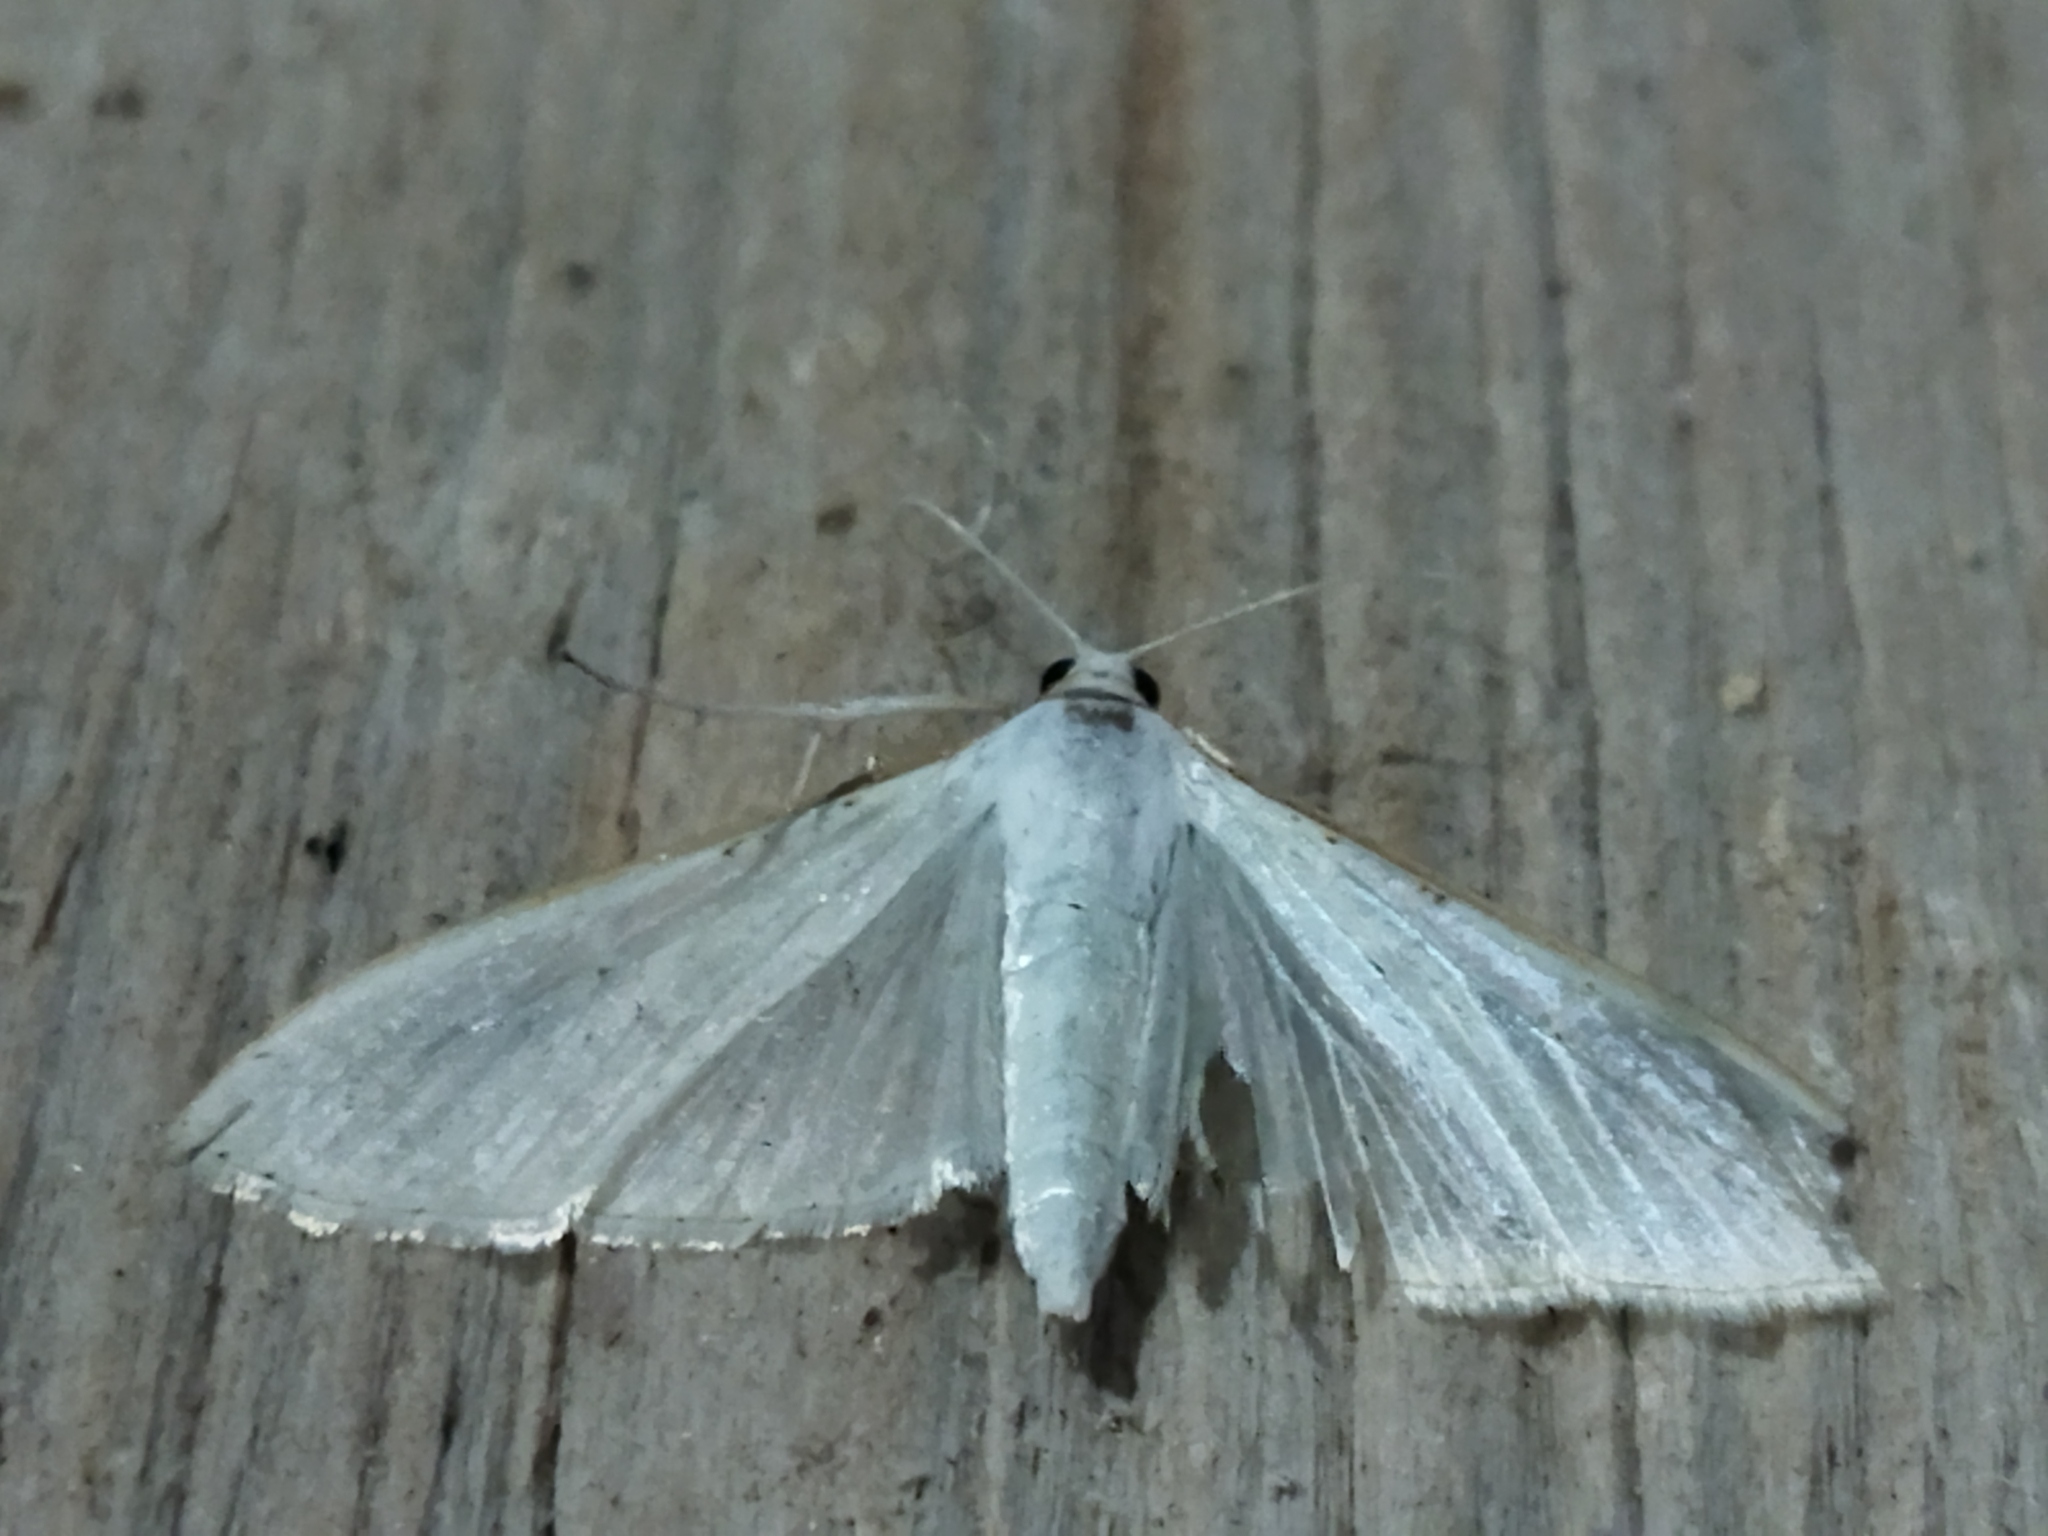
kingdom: Animalia
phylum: Arthropoda
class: Insecta
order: Lepidoptera
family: Crambidae
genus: Palpita
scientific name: Palpita vitrealis
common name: Olive-tree pearl
